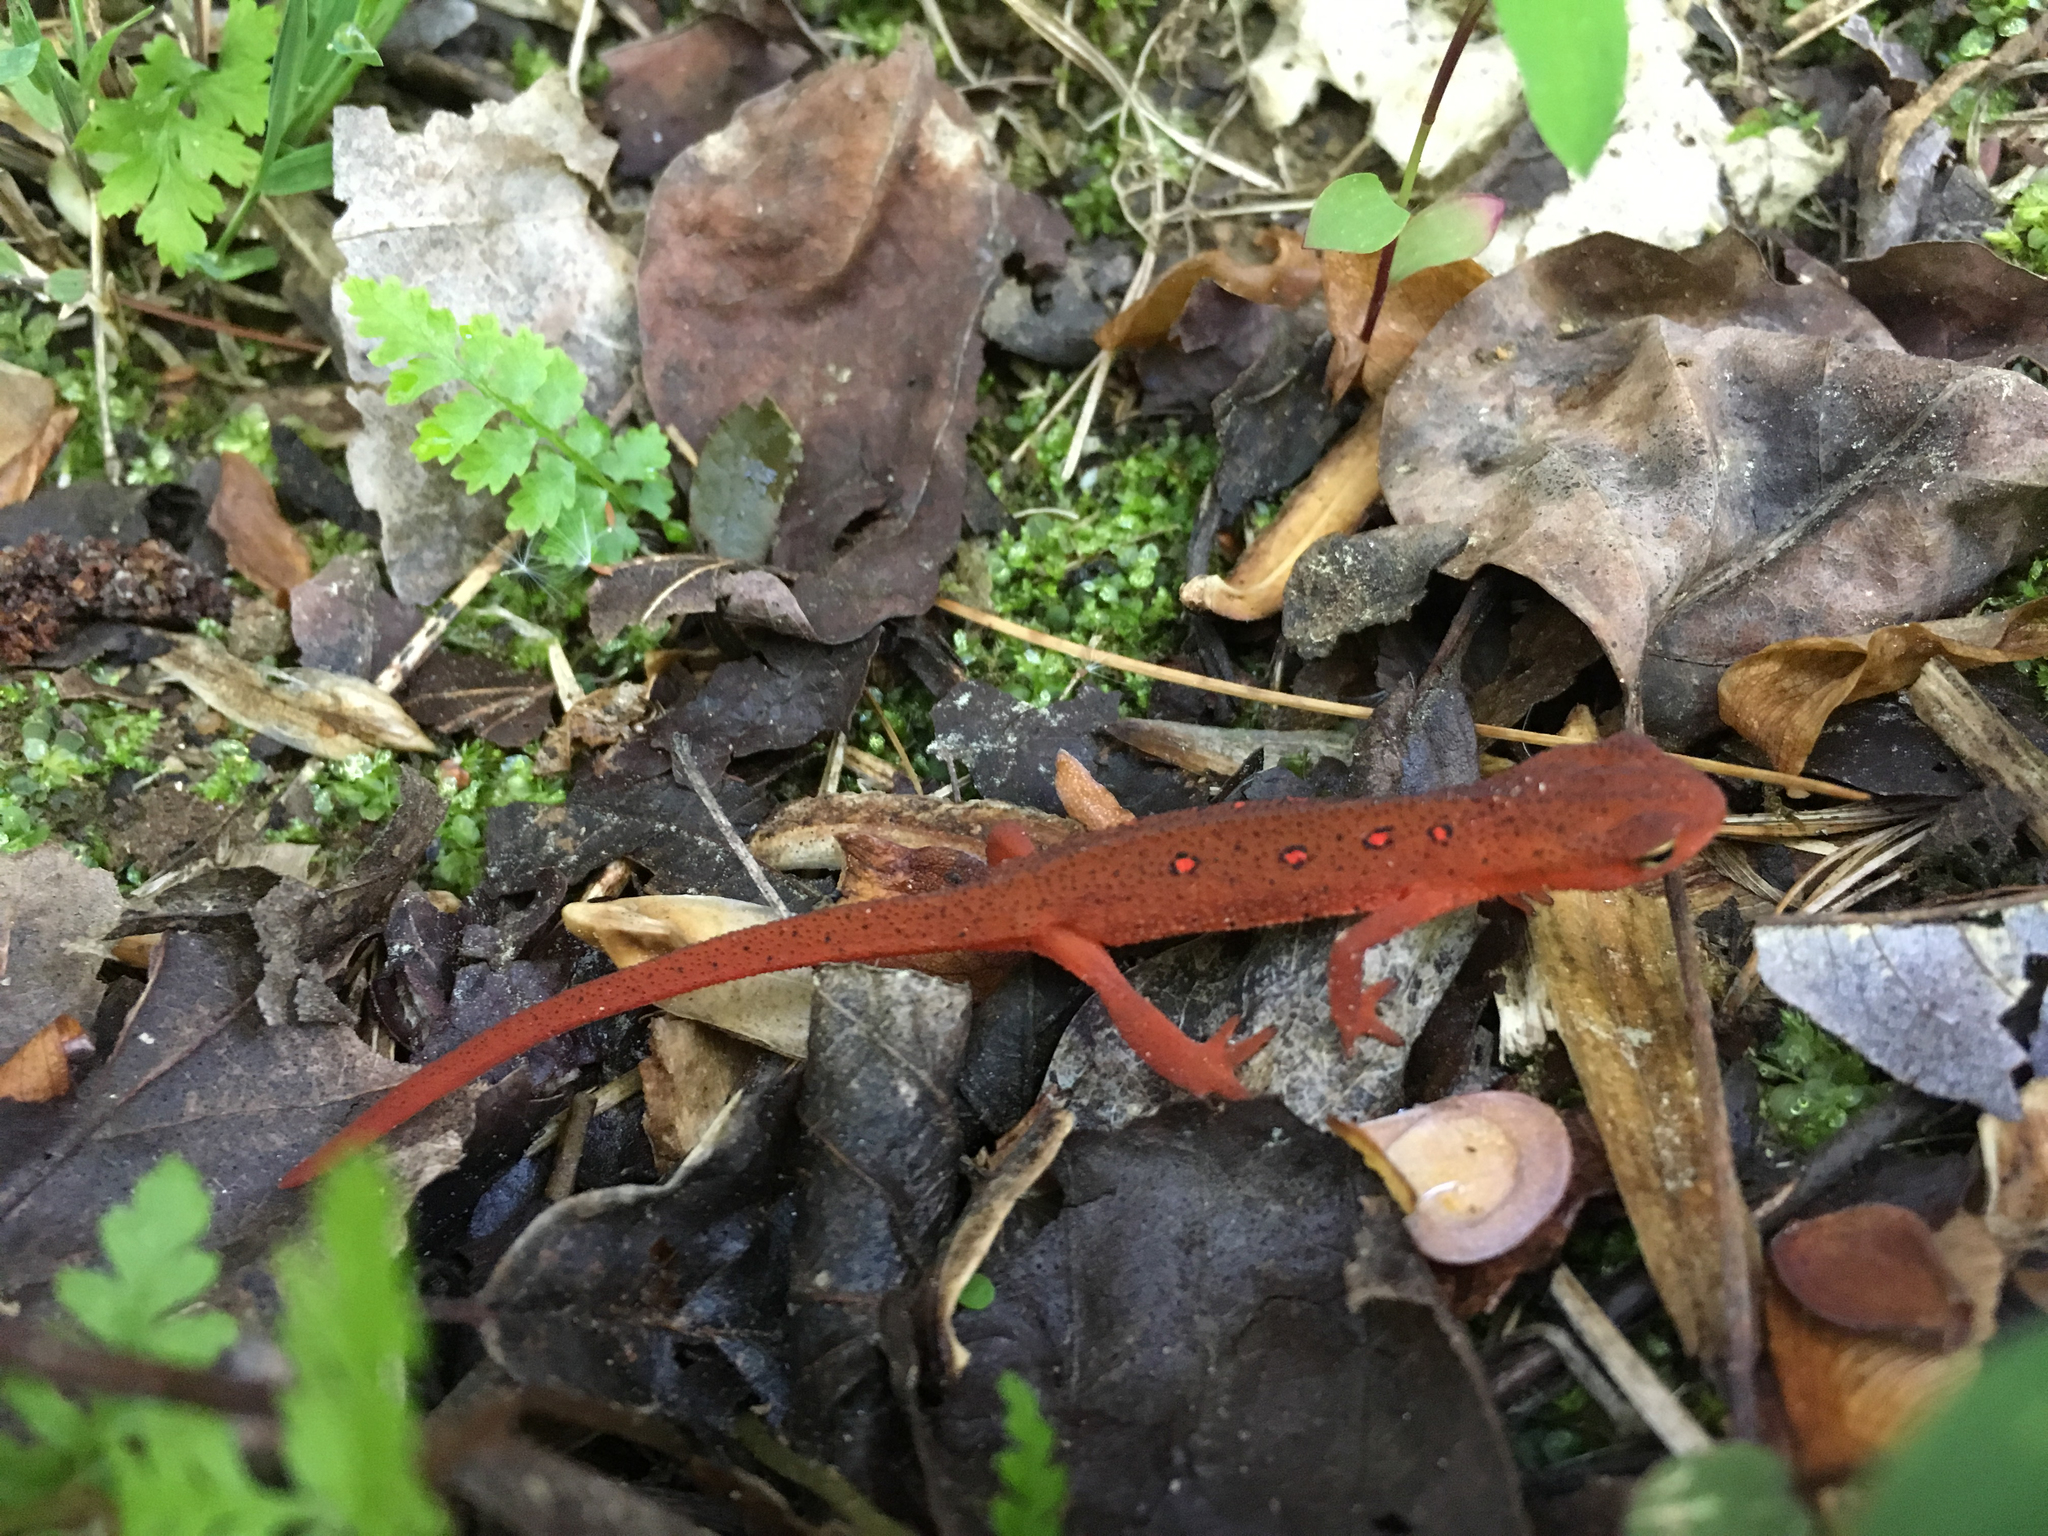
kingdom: Animalia
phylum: Chordata
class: Amphibia
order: Caudata
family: Salamandridae
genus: Notophthalmus
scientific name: Notophthalmus viridescens
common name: Eastern newt
